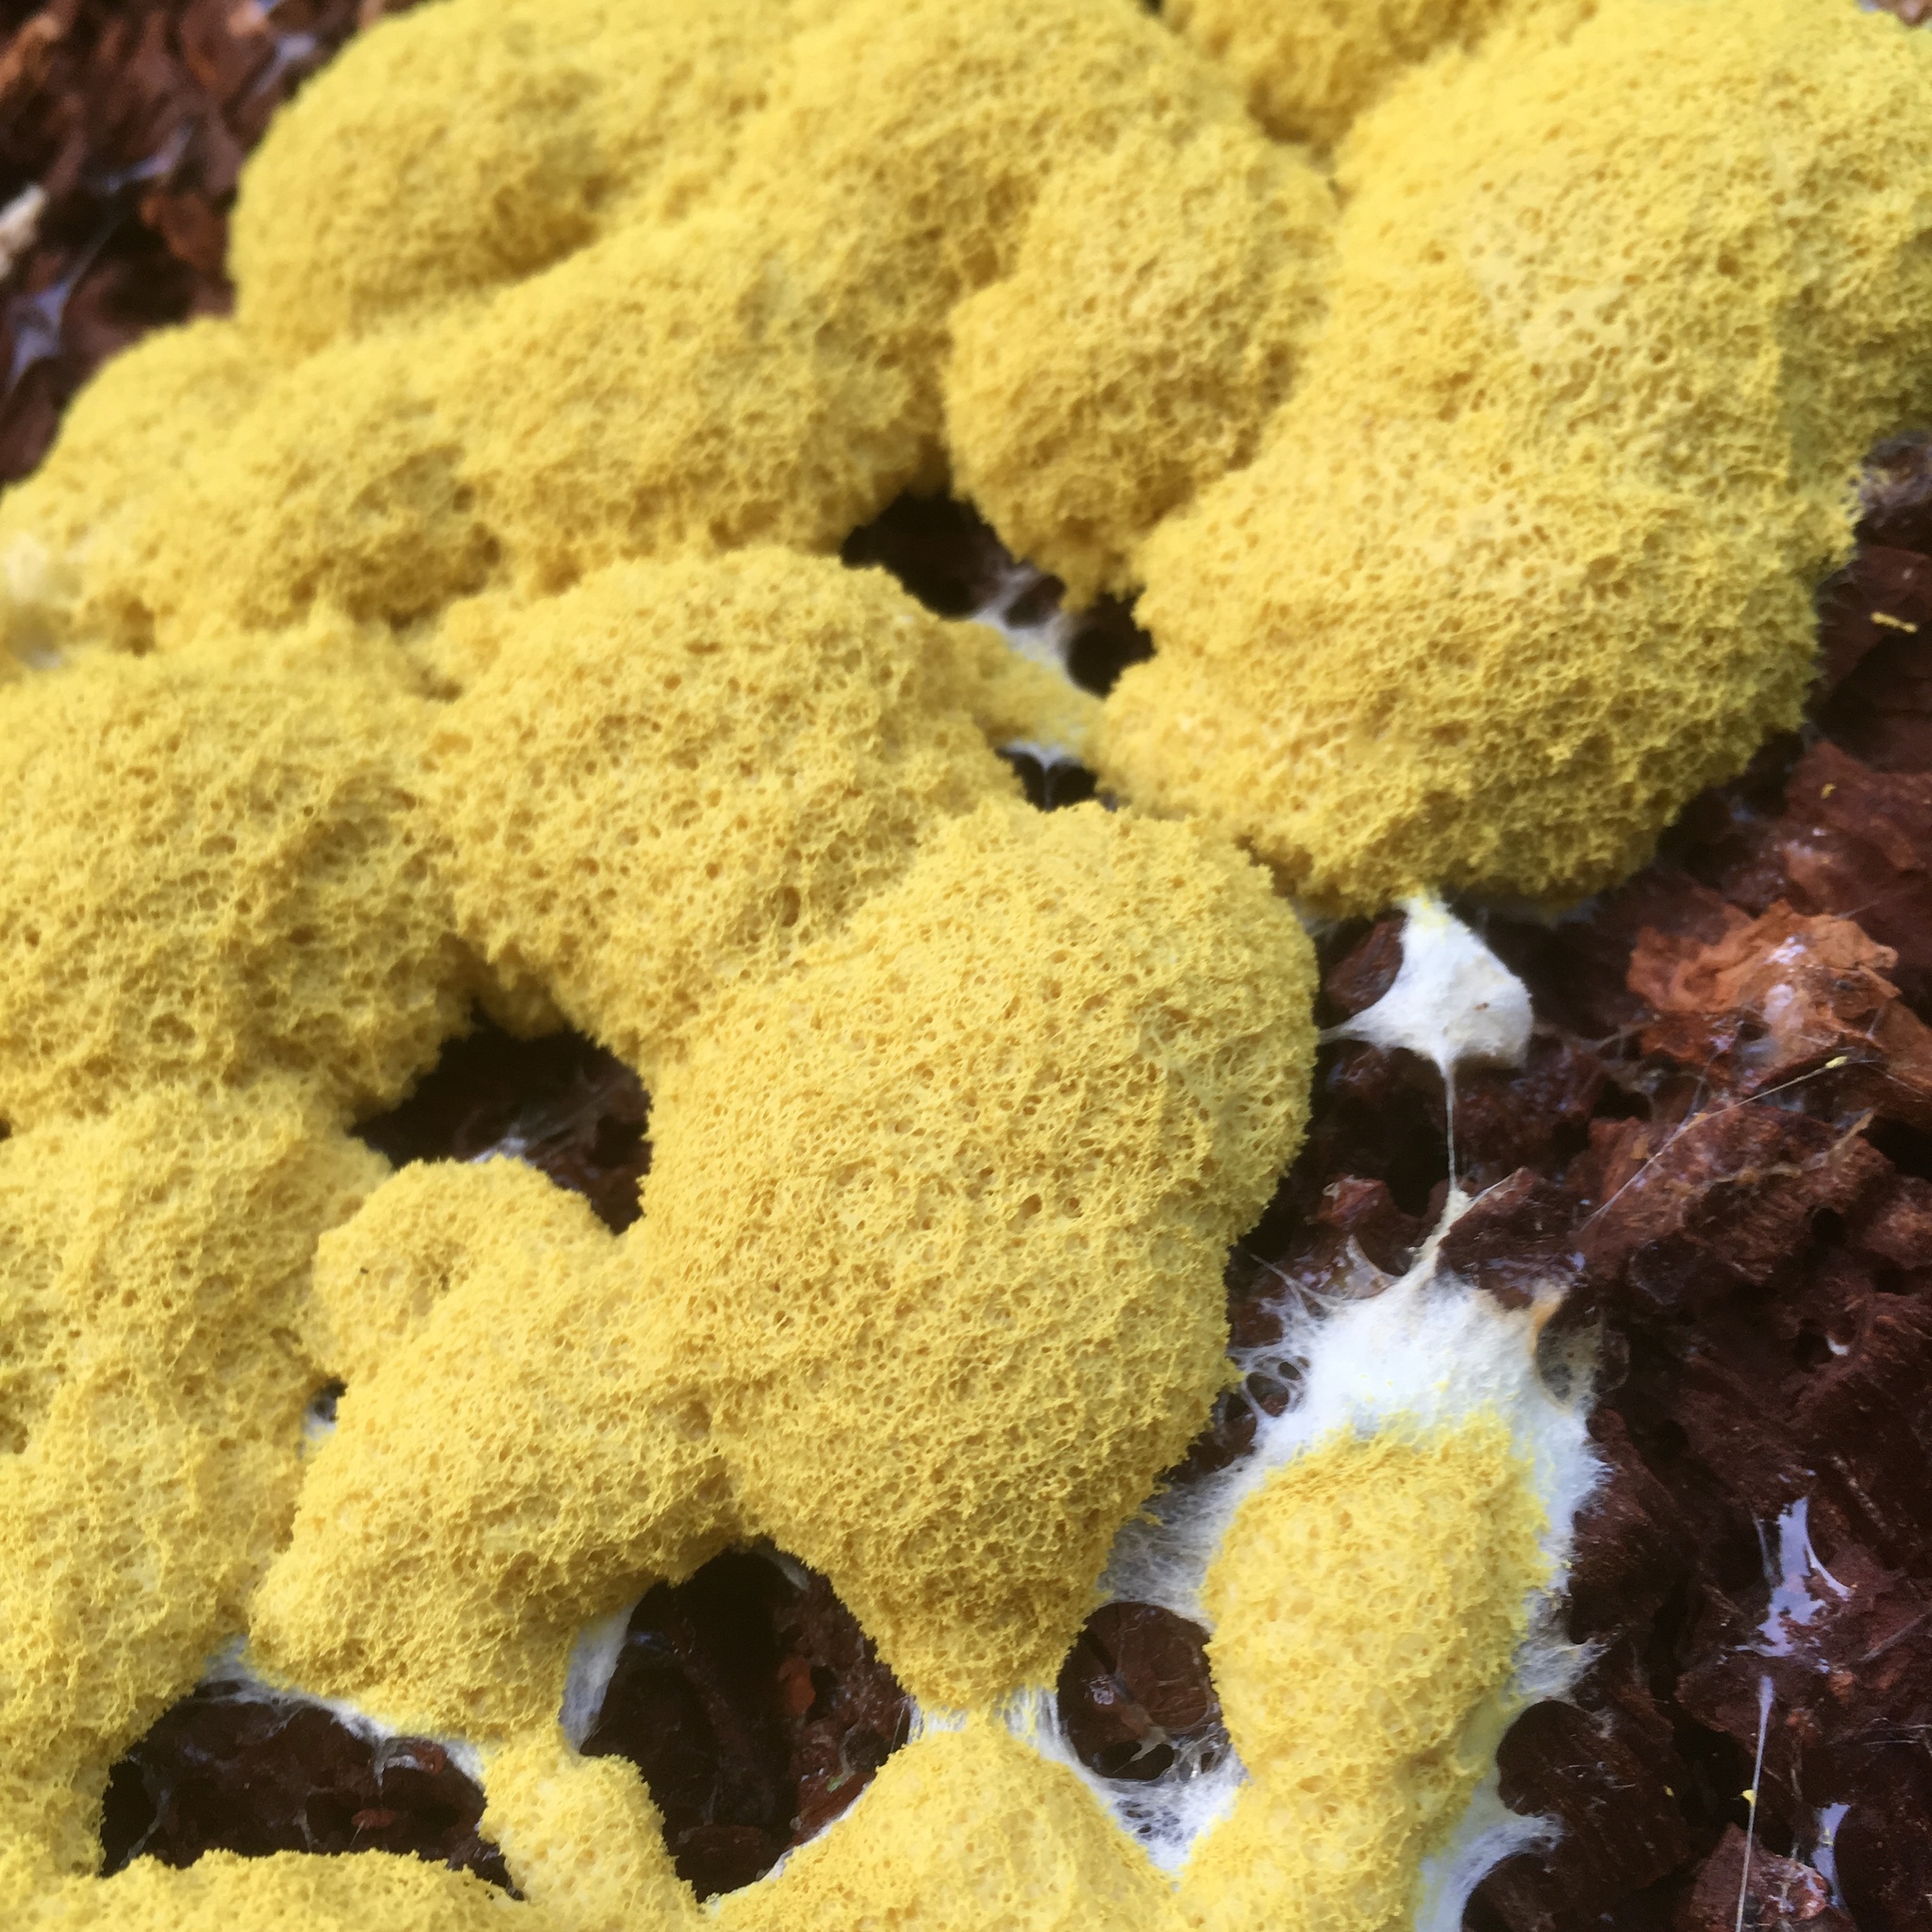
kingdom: Protozoa
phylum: Mycetozoa
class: Myxomycetes
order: Physarales
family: Physaraceae
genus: Fuligo
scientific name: Fuligo septica
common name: Dog vomit slime mold
